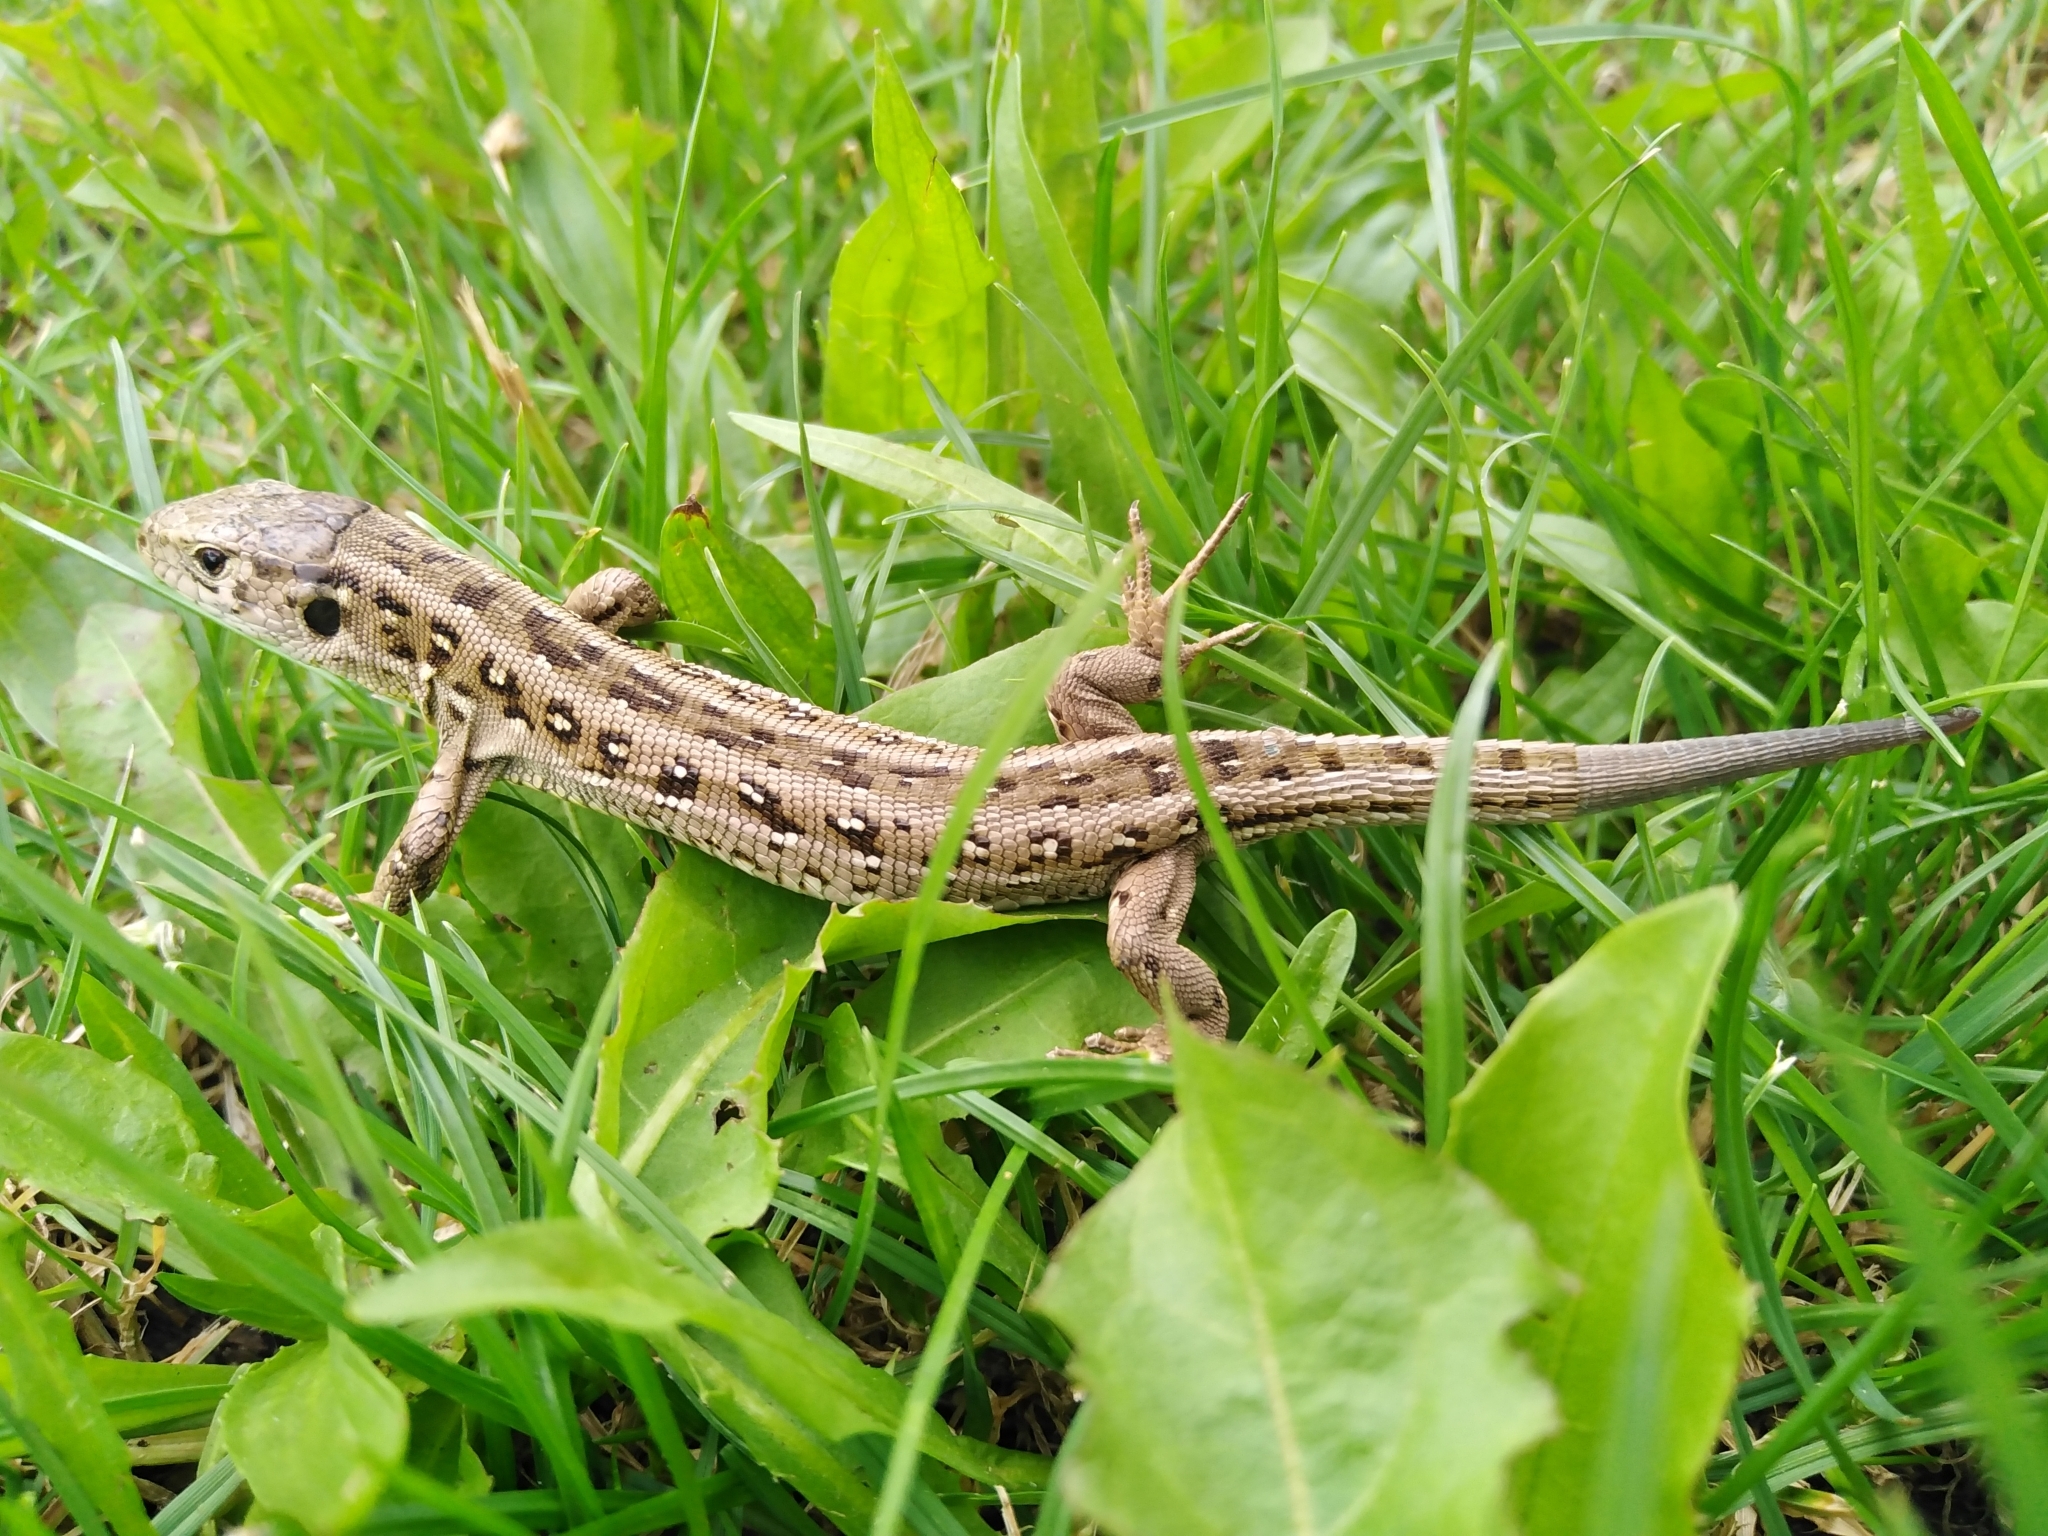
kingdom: Animalia
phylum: Chordata
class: Squamata
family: Lacertidae
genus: Lacerta
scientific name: Lacerta agilis
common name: Sand lizard
